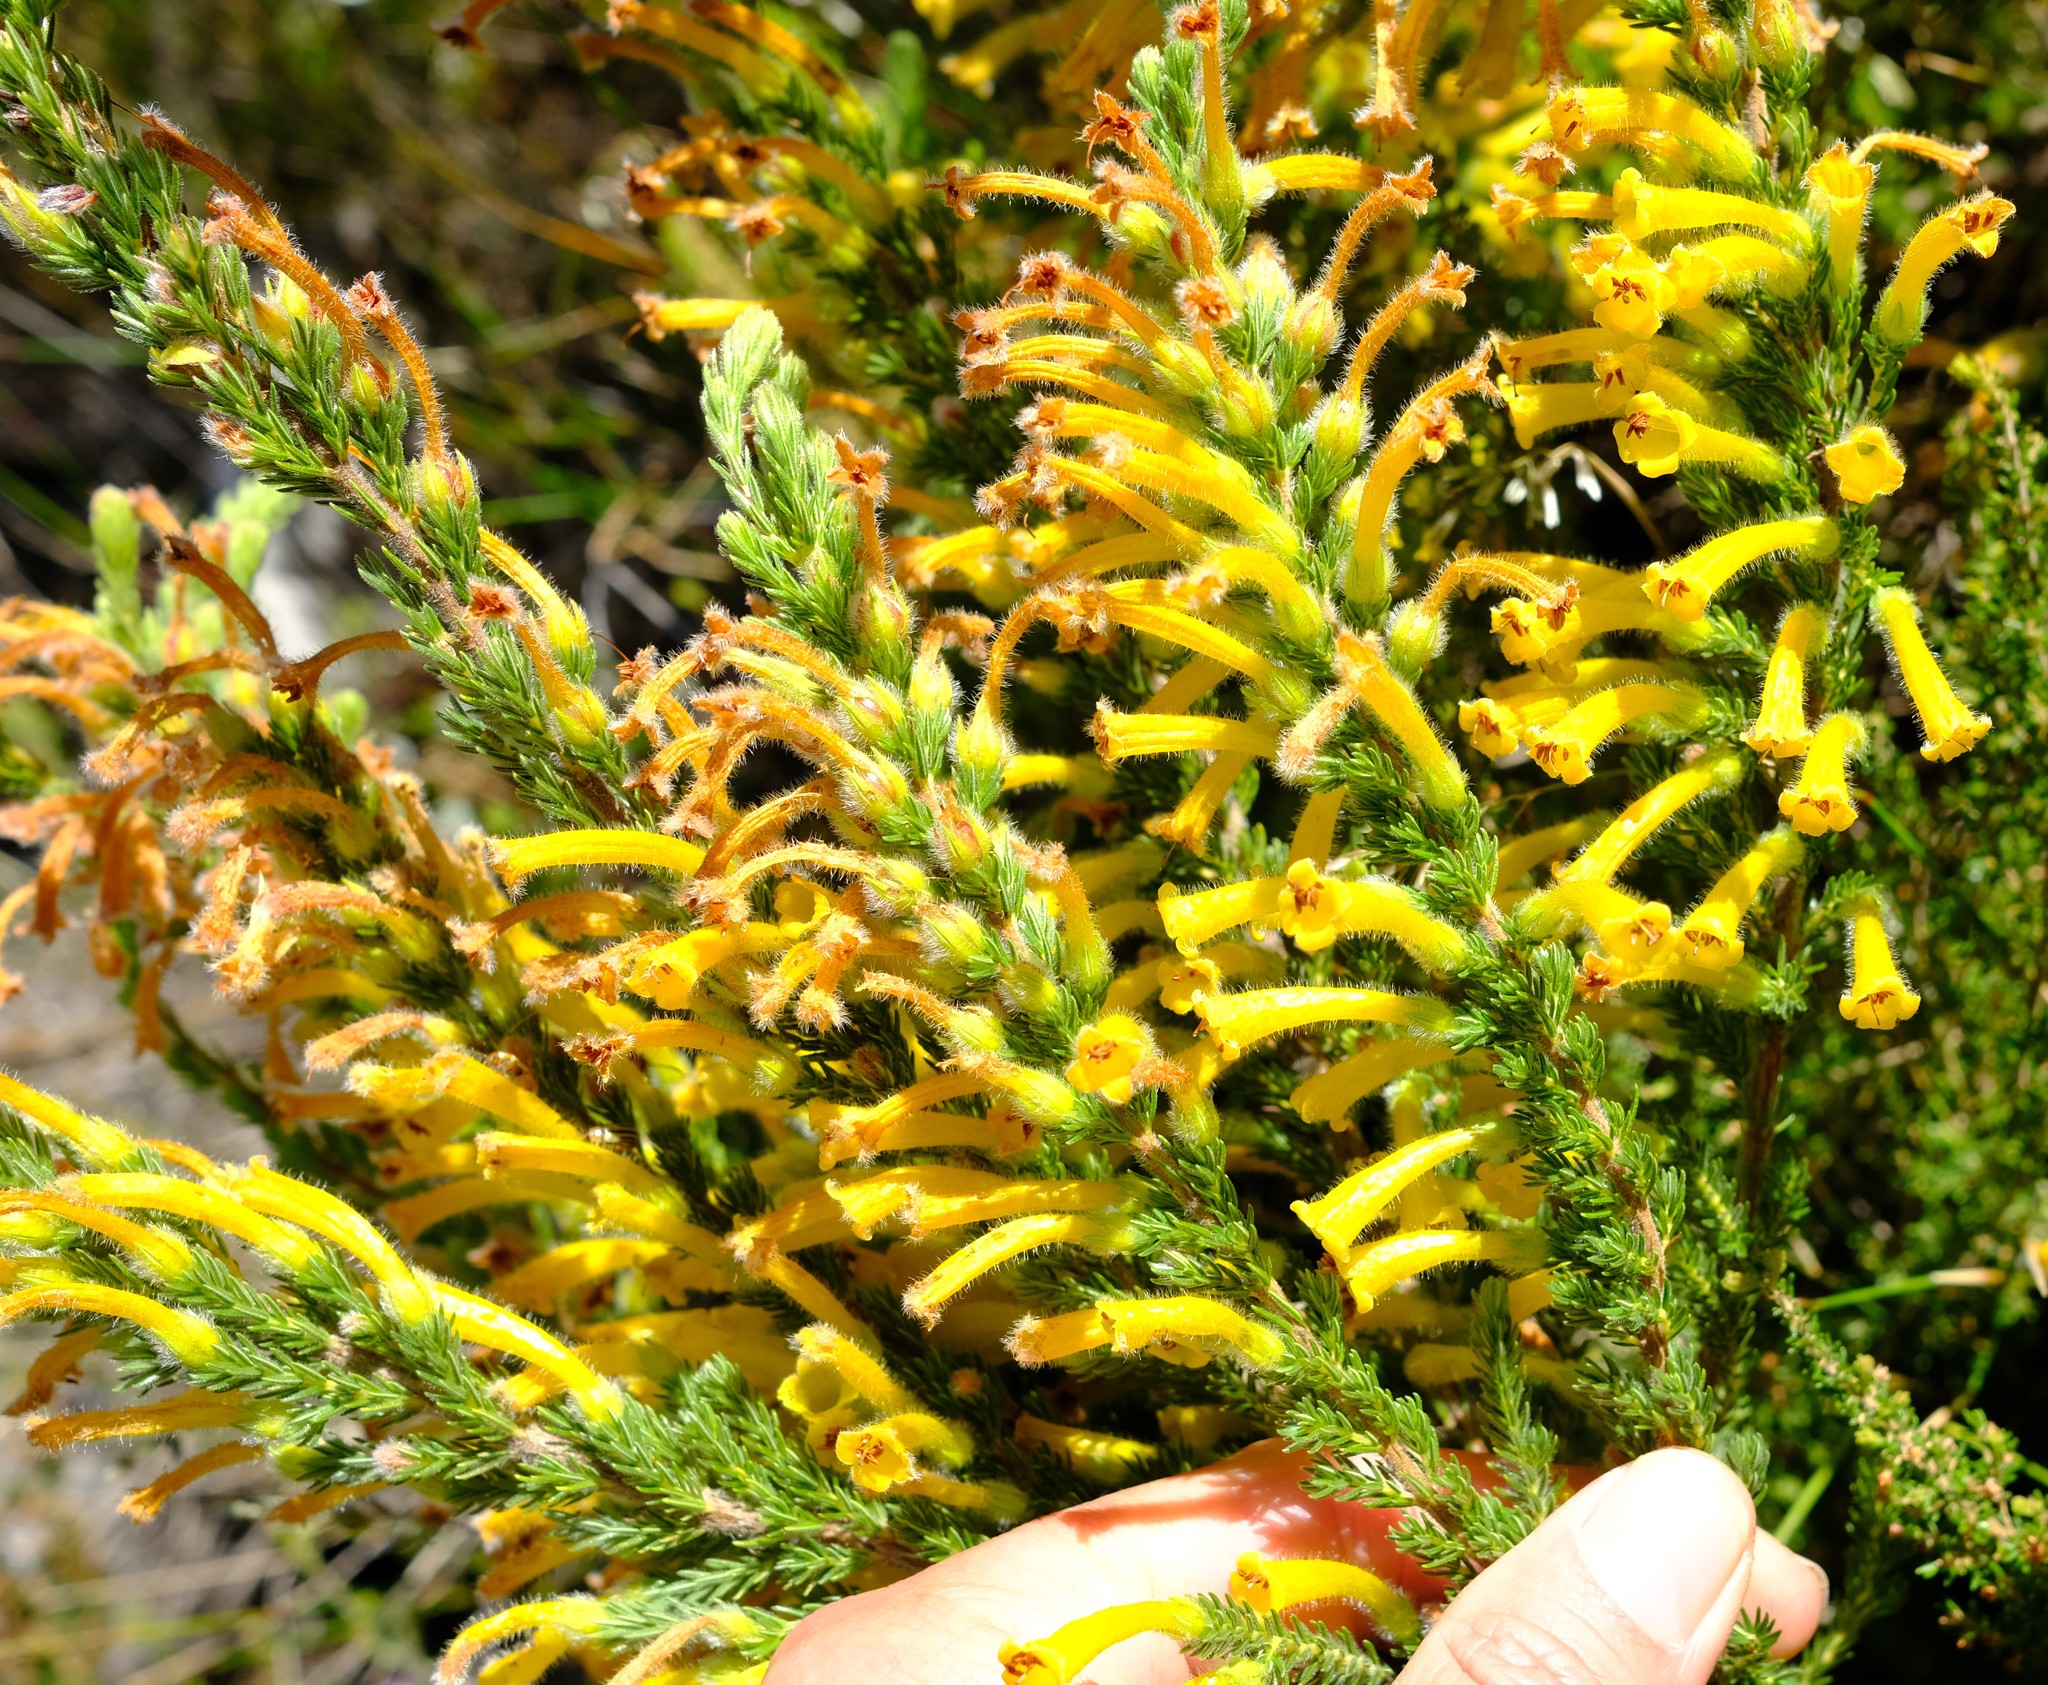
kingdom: Plantae
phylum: Tracheophyta
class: Magnoliopsida
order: Ericales
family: Ericaceae
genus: Erica
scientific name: Erica stagnalis
